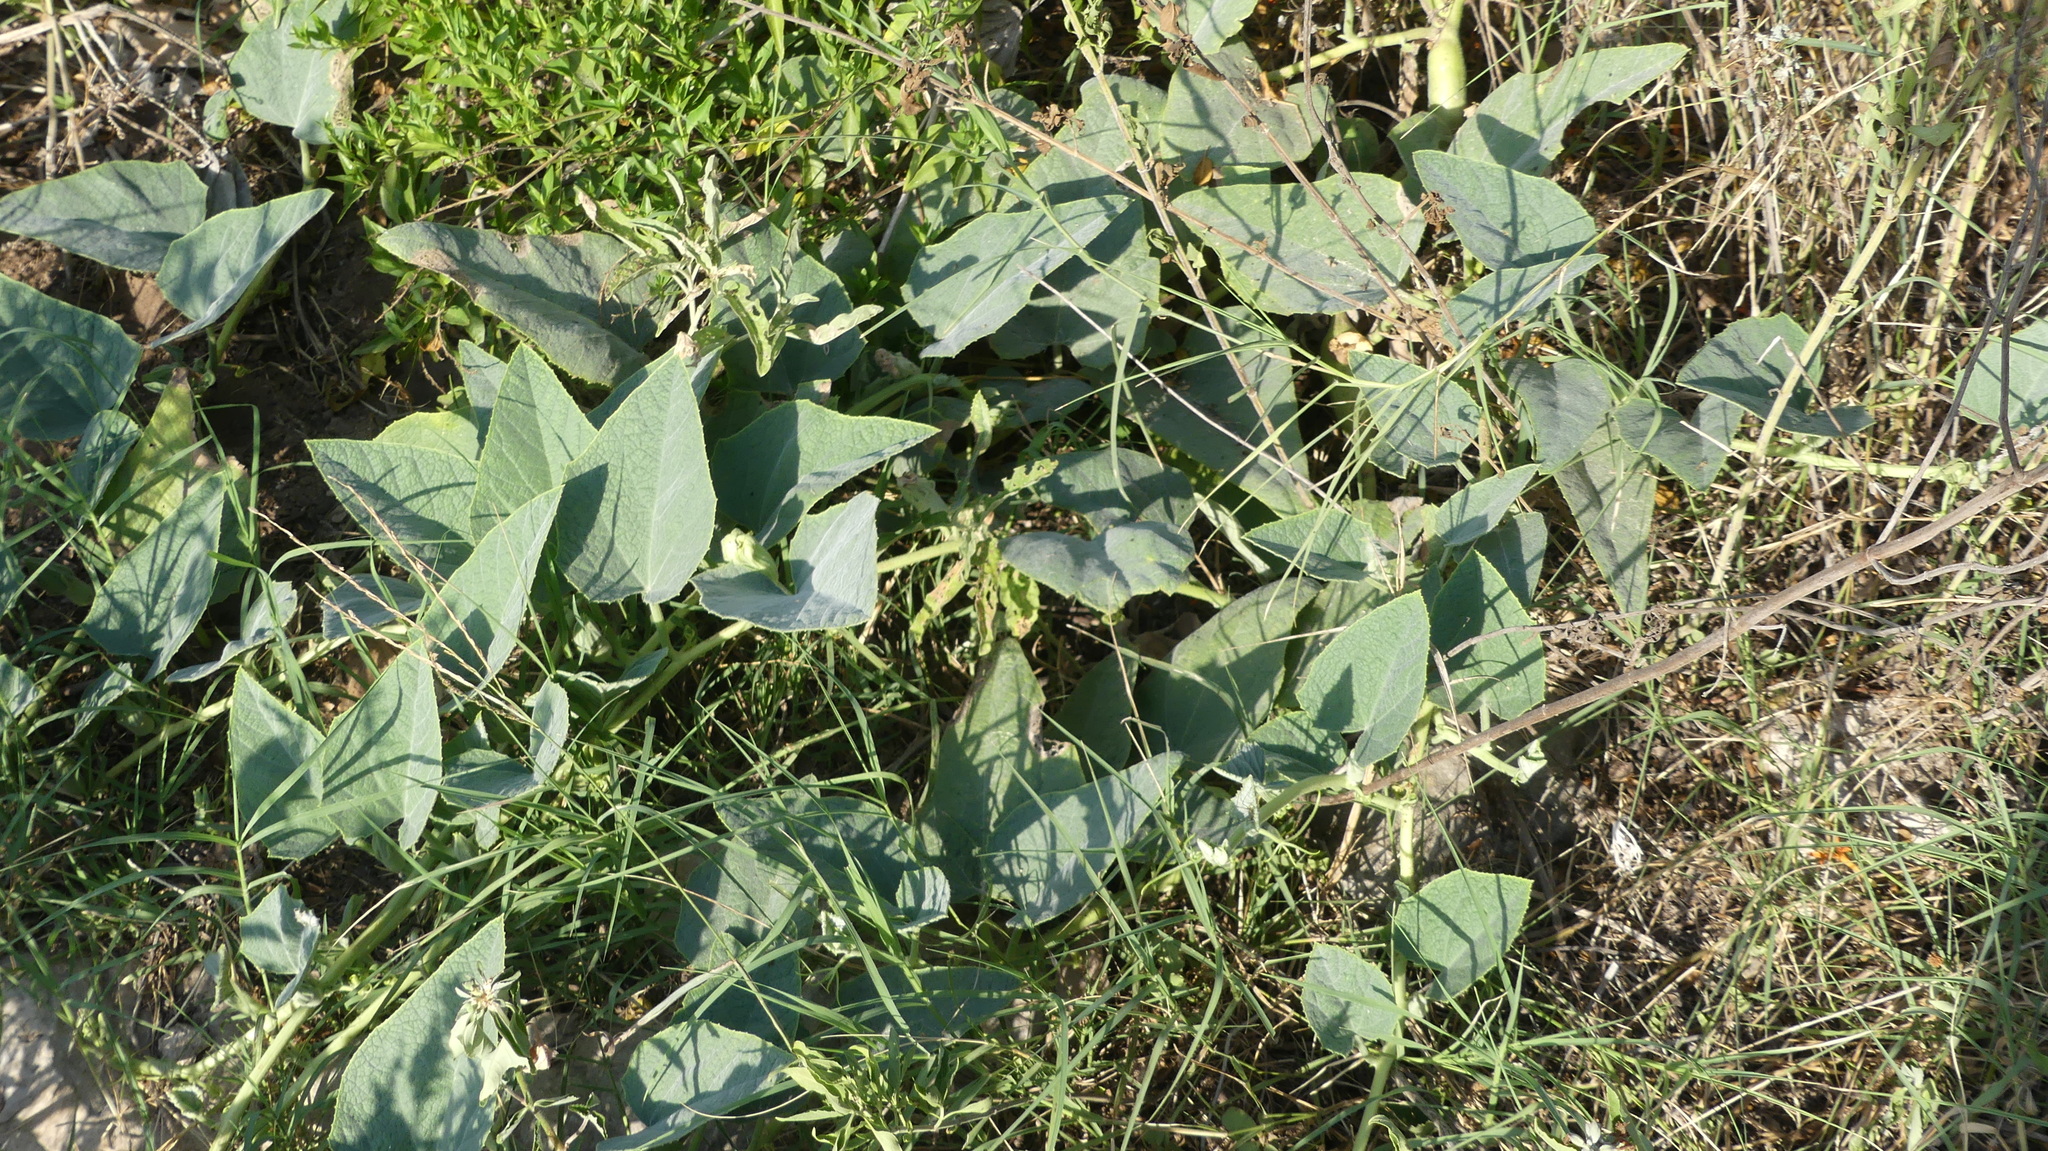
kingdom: Plantae
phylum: Tracheophyta
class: Magnoliopsida
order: Cucurbitales
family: Cucurbitaceae
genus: Cucurbita
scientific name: Cucurbita foetidissima
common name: Buffalo gourd
